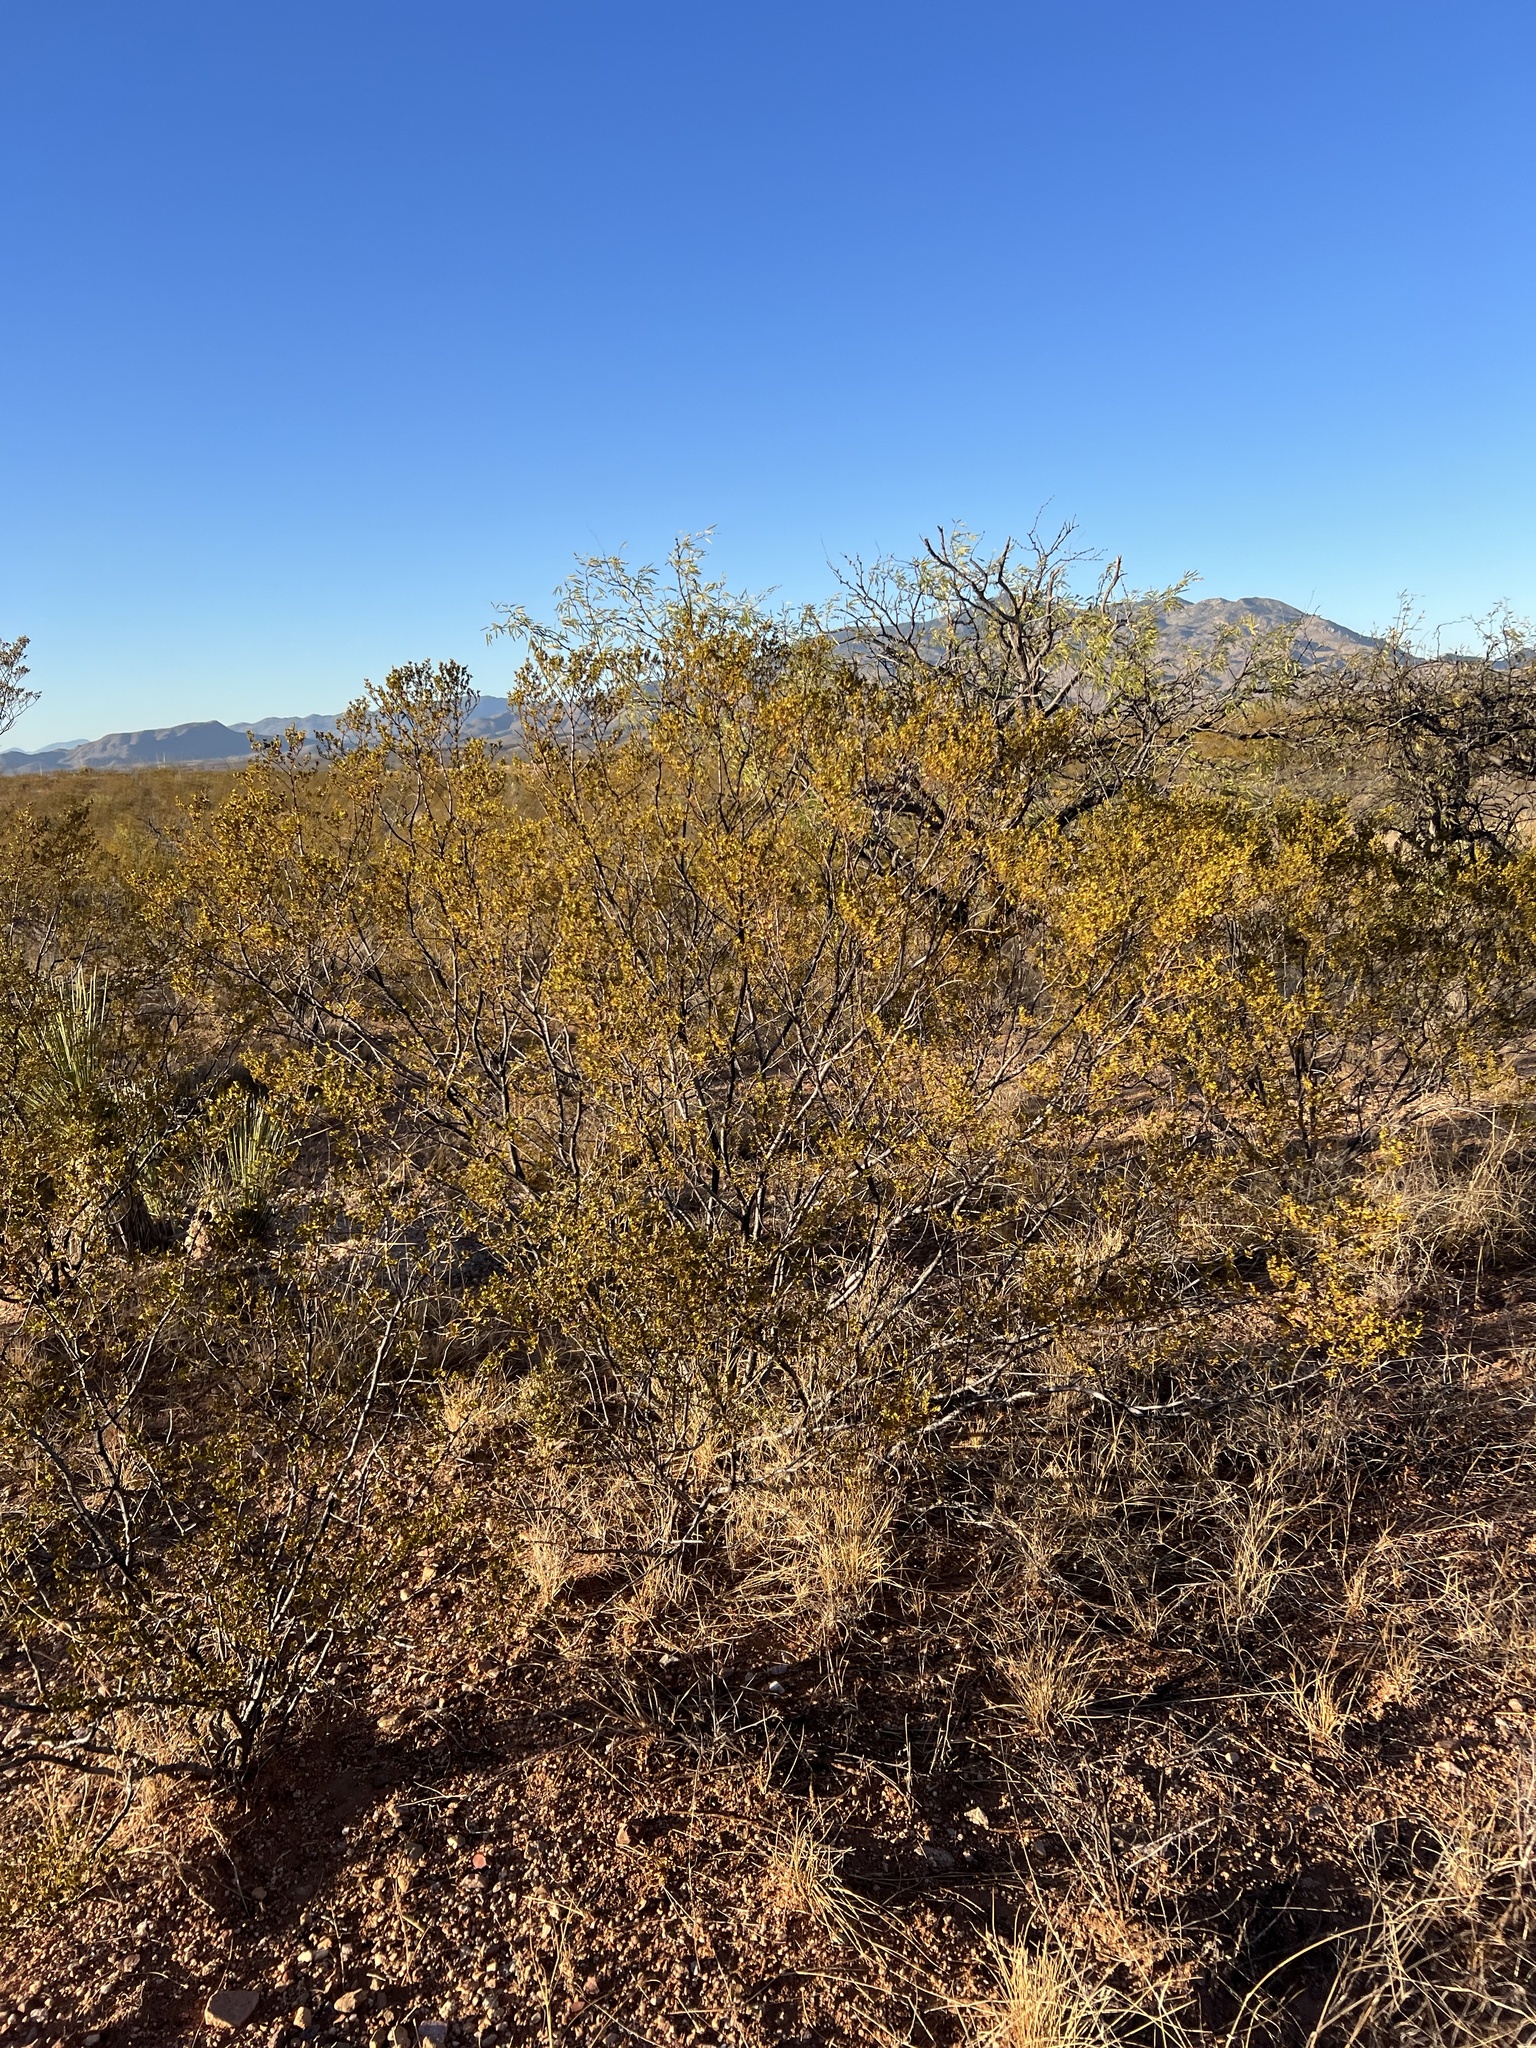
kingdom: Plantae
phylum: Tracheophyta
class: Magnoliopsida
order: Zygophyllales
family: Zygophyllaceae
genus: Larrea
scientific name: Larrea tridentata
